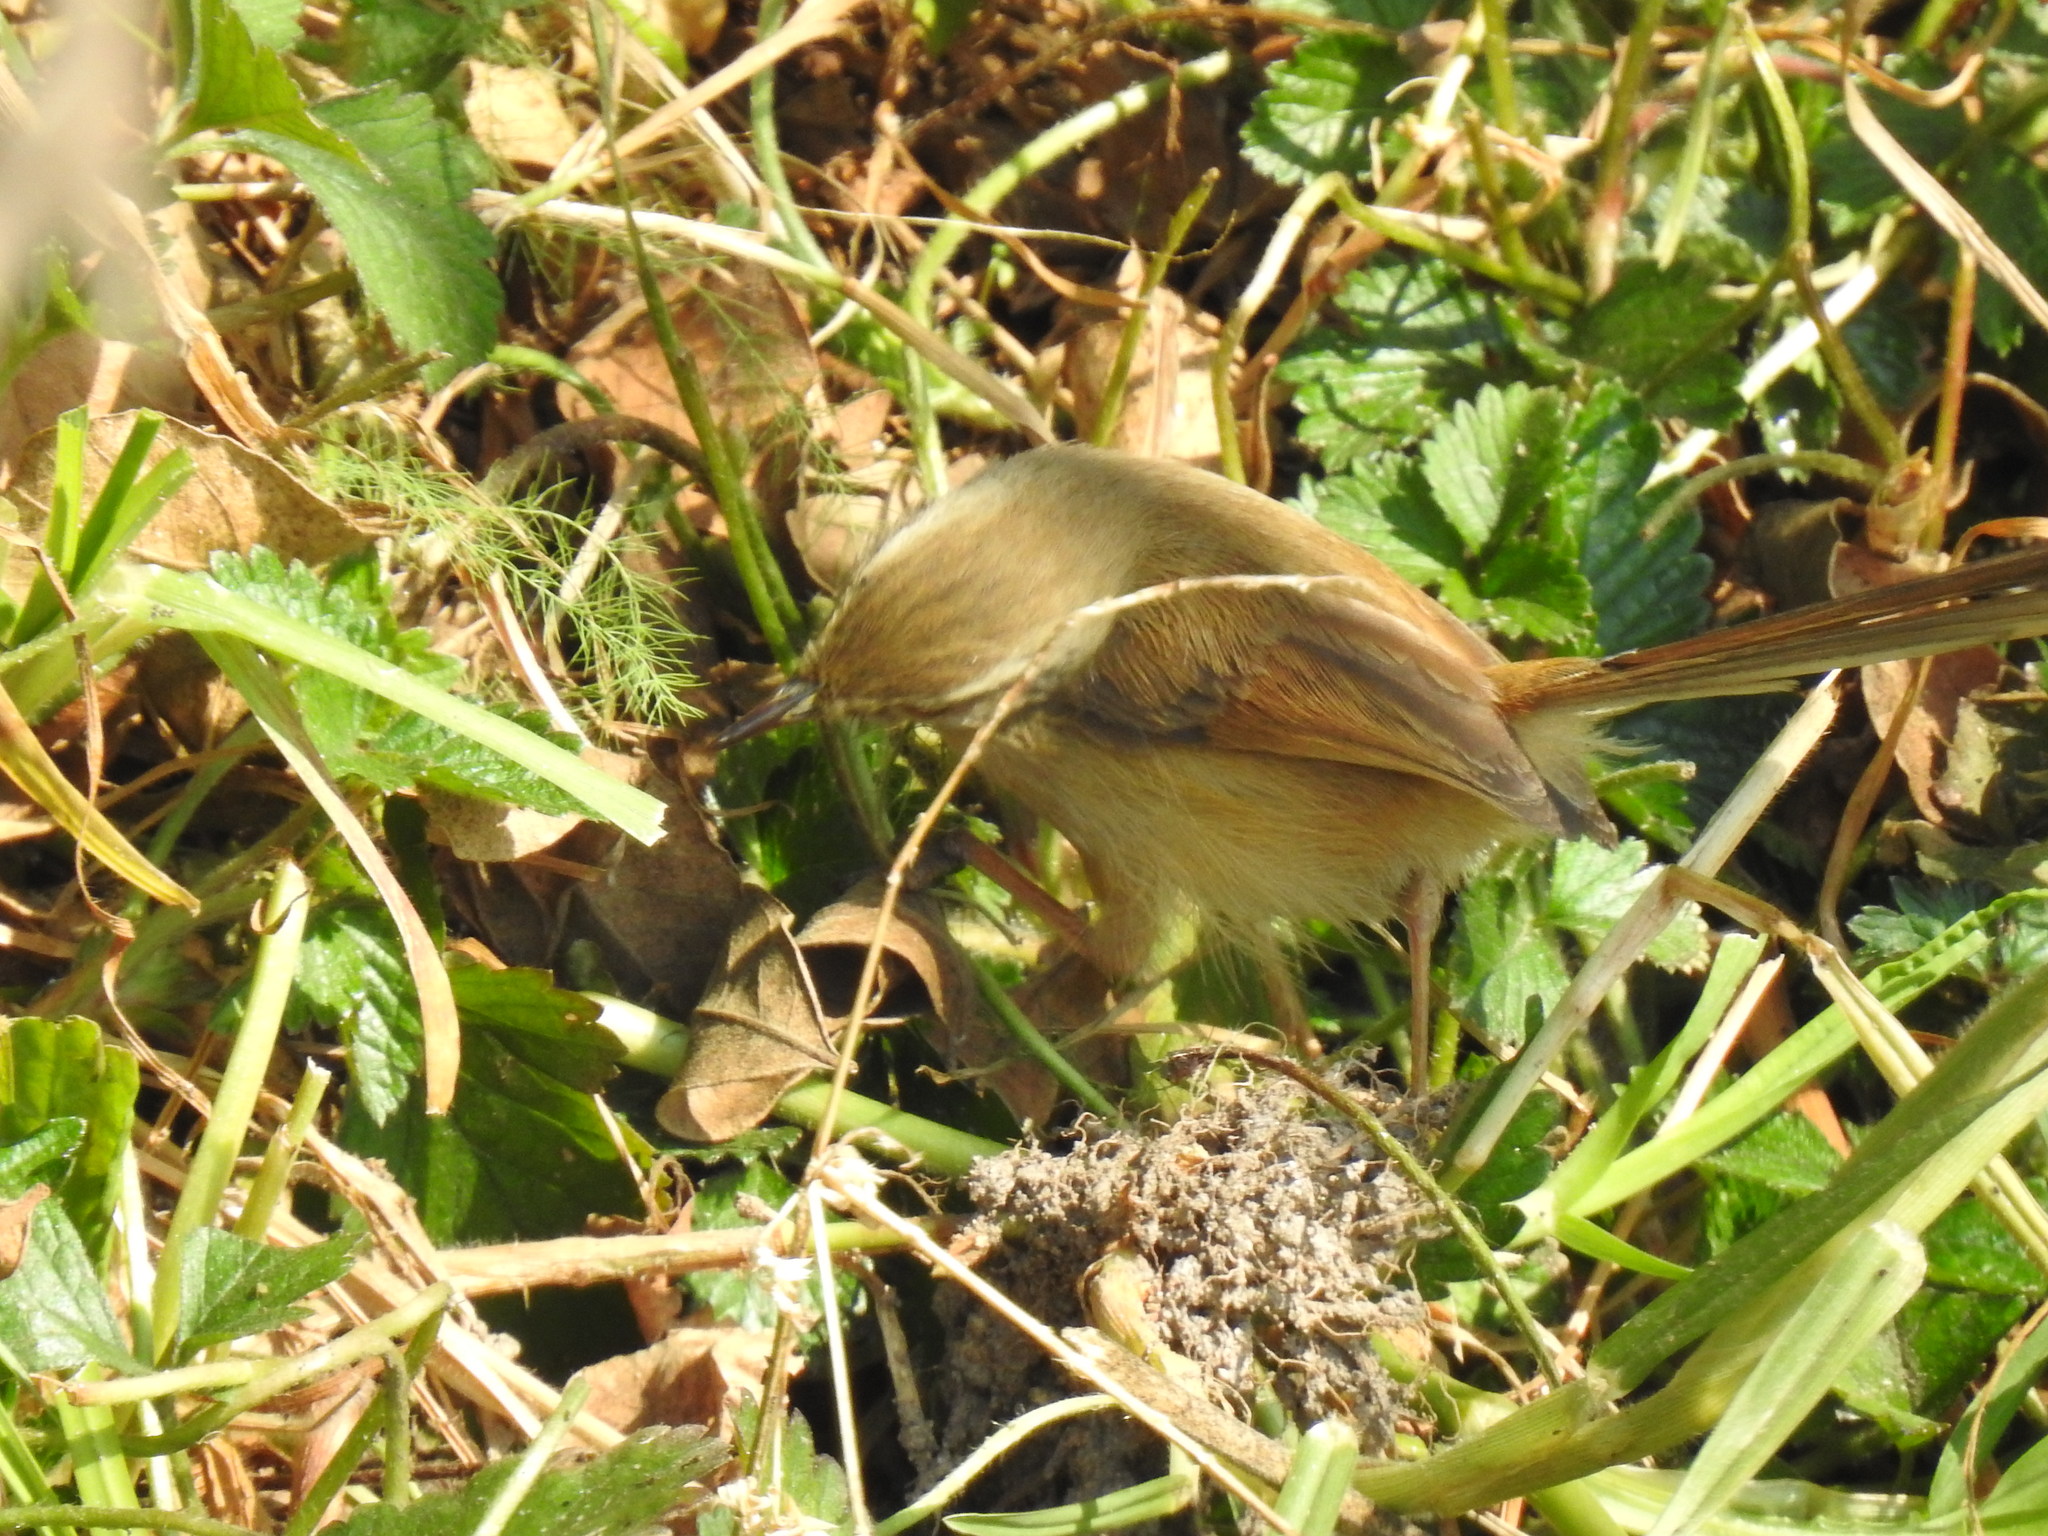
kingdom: Animalia
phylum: Chordata
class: Aves
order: Passeriformes
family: Cisticolidae
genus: Prinia
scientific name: Prinia subflava
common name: Tawny-flanked prinia
